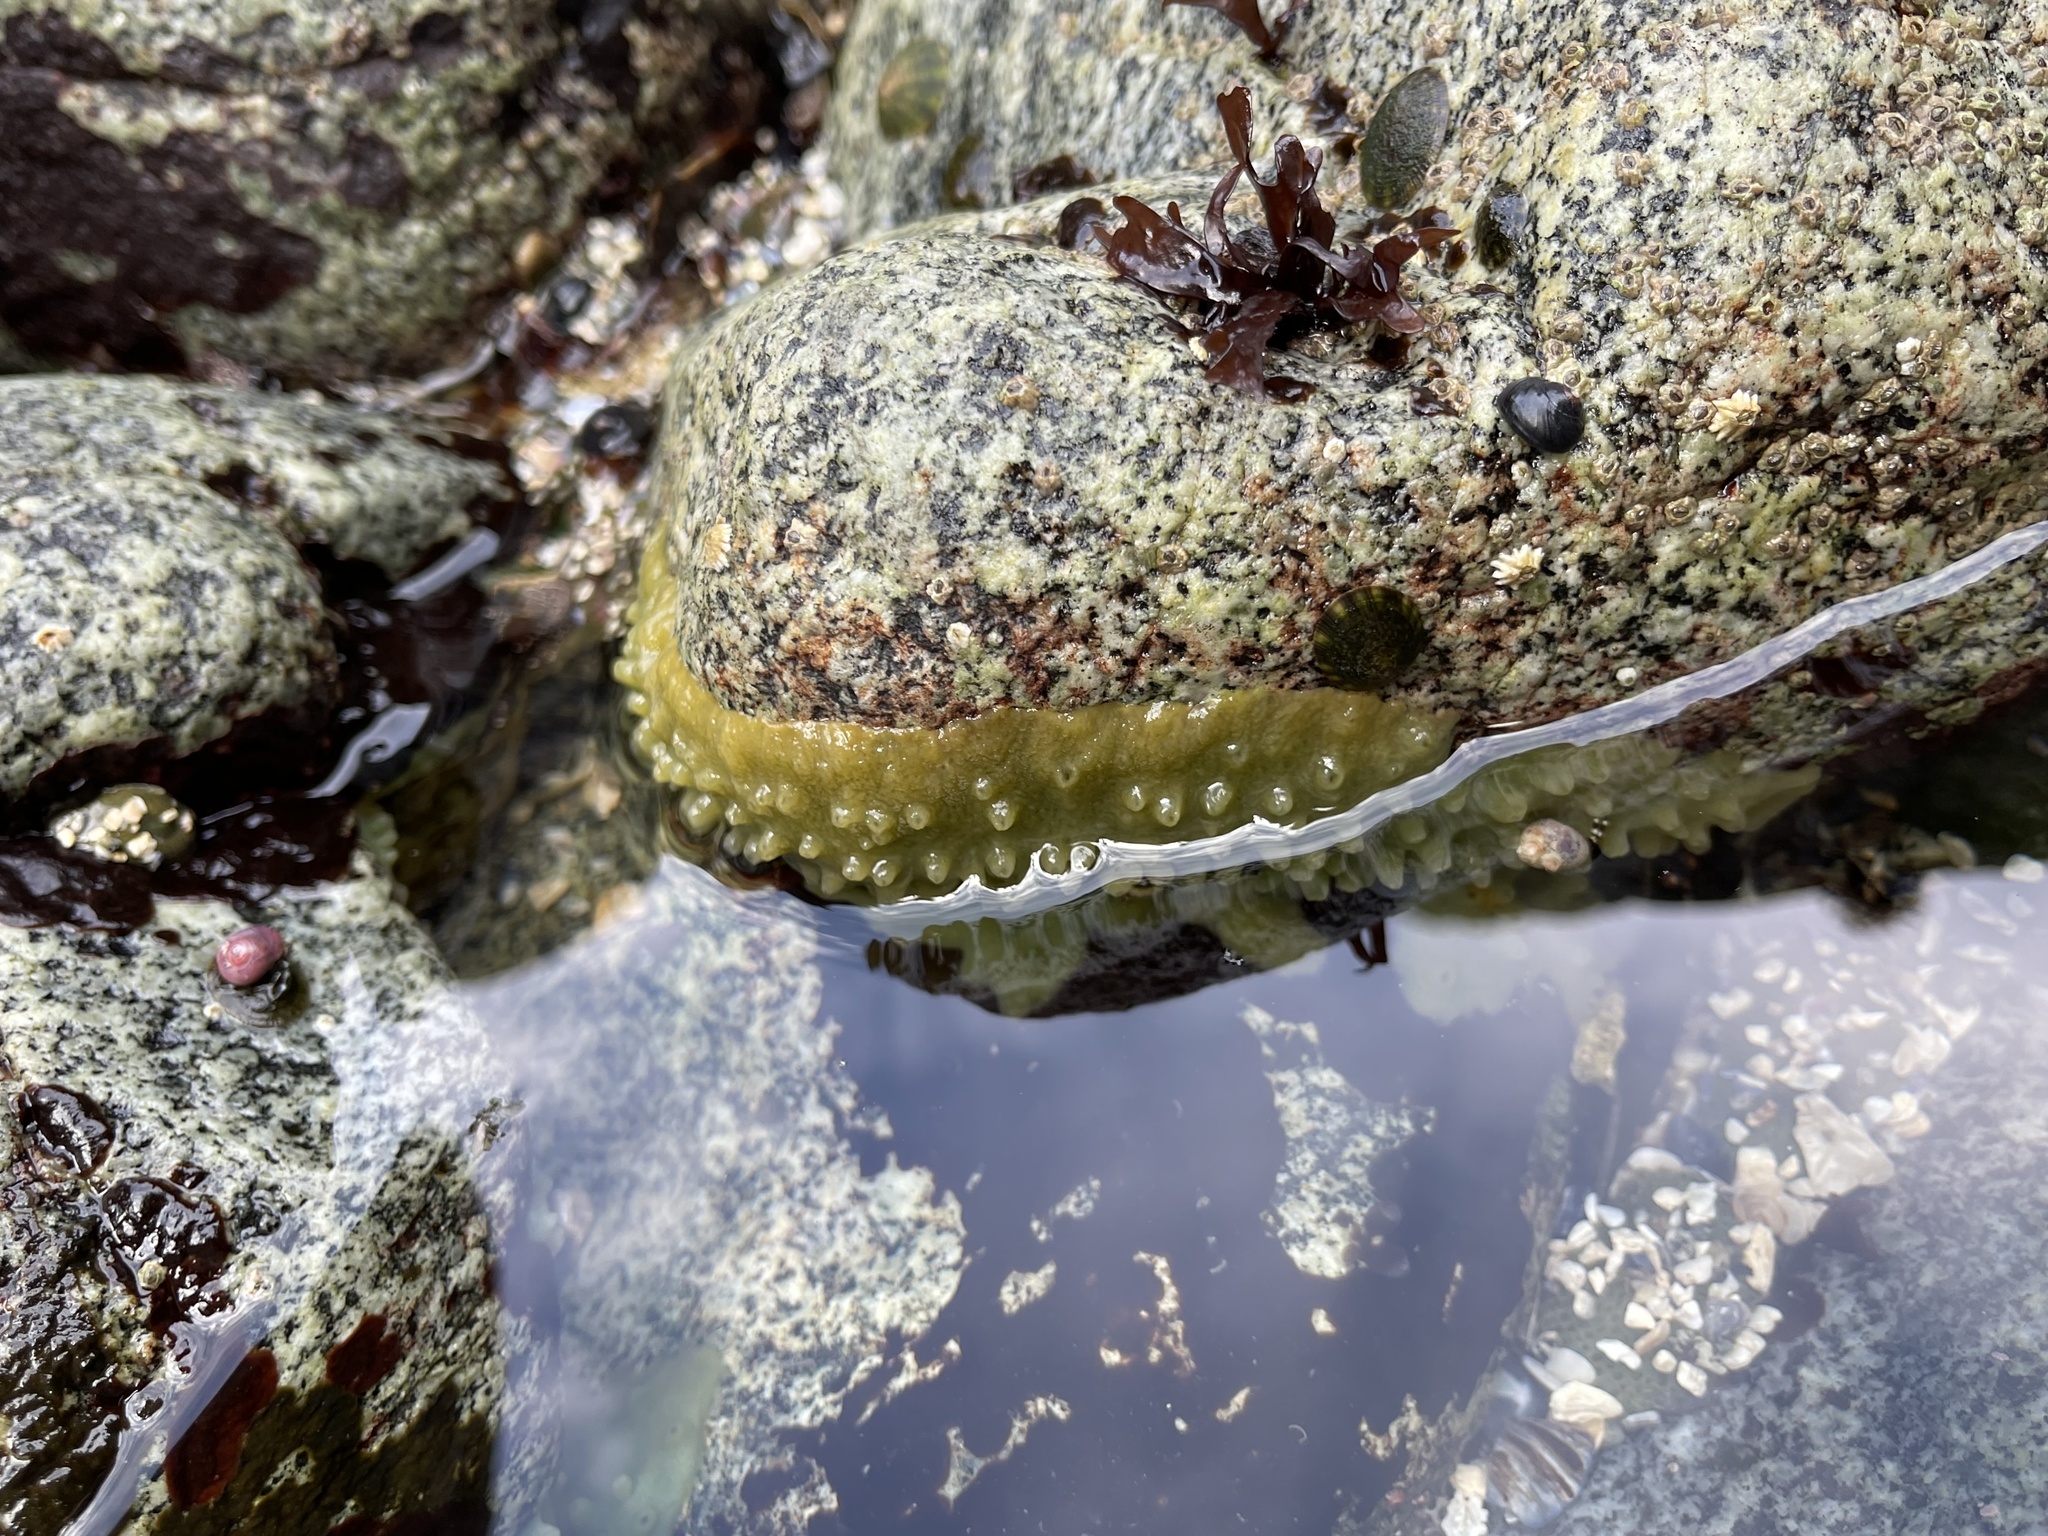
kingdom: Animalia
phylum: Porifera
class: Demospongiae
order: Suberitida
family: Halichondriidae
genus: Halichondria
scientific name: Halichondria panicea
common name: Breadcrumb sponge
